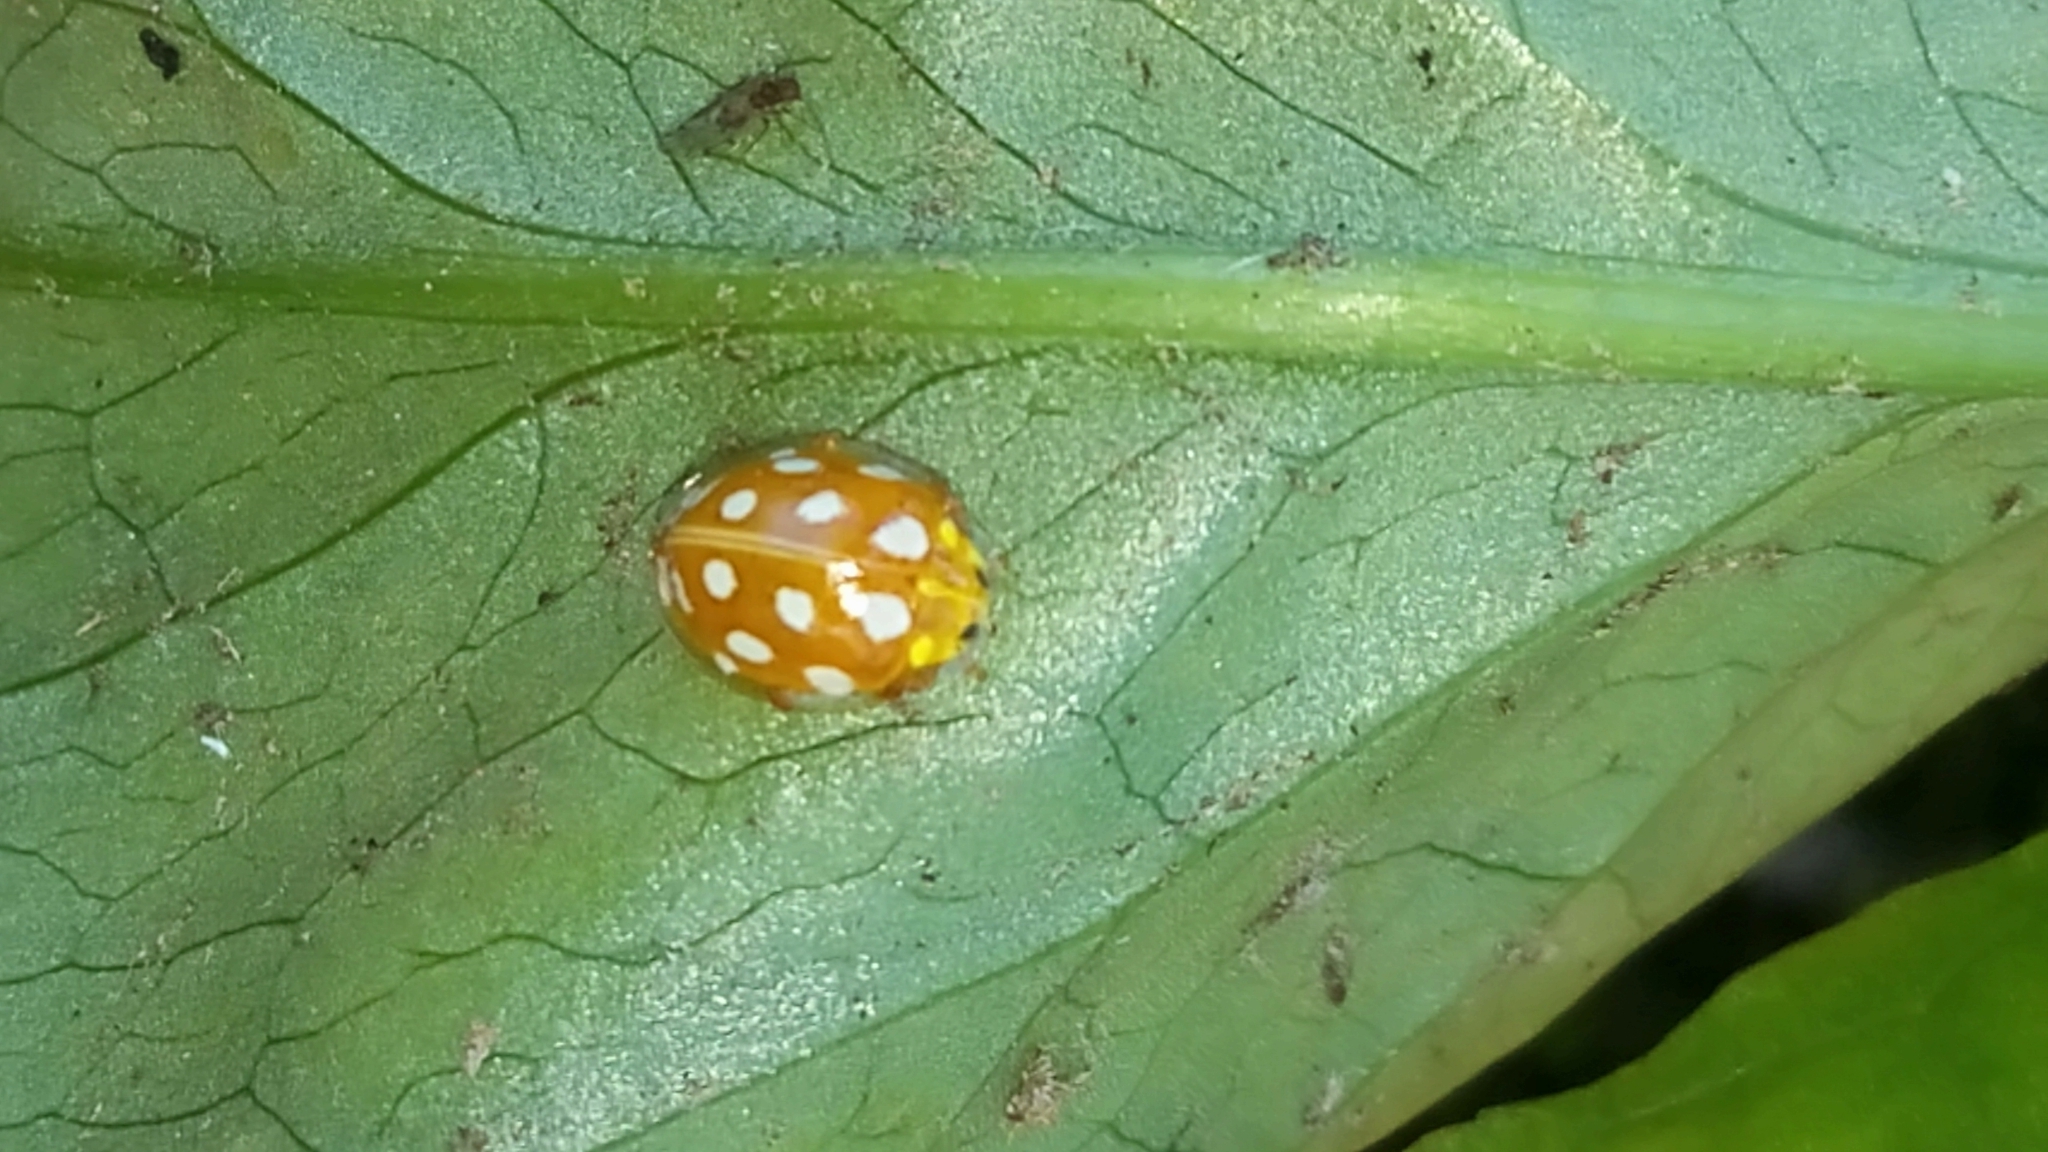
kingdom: Animalia
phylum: Arthropoda
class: Insecta
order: Coleoptera
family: Coccinellidae
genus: Halyzia
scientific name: Halyzia sedecimguttata
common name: Orange ladybird
